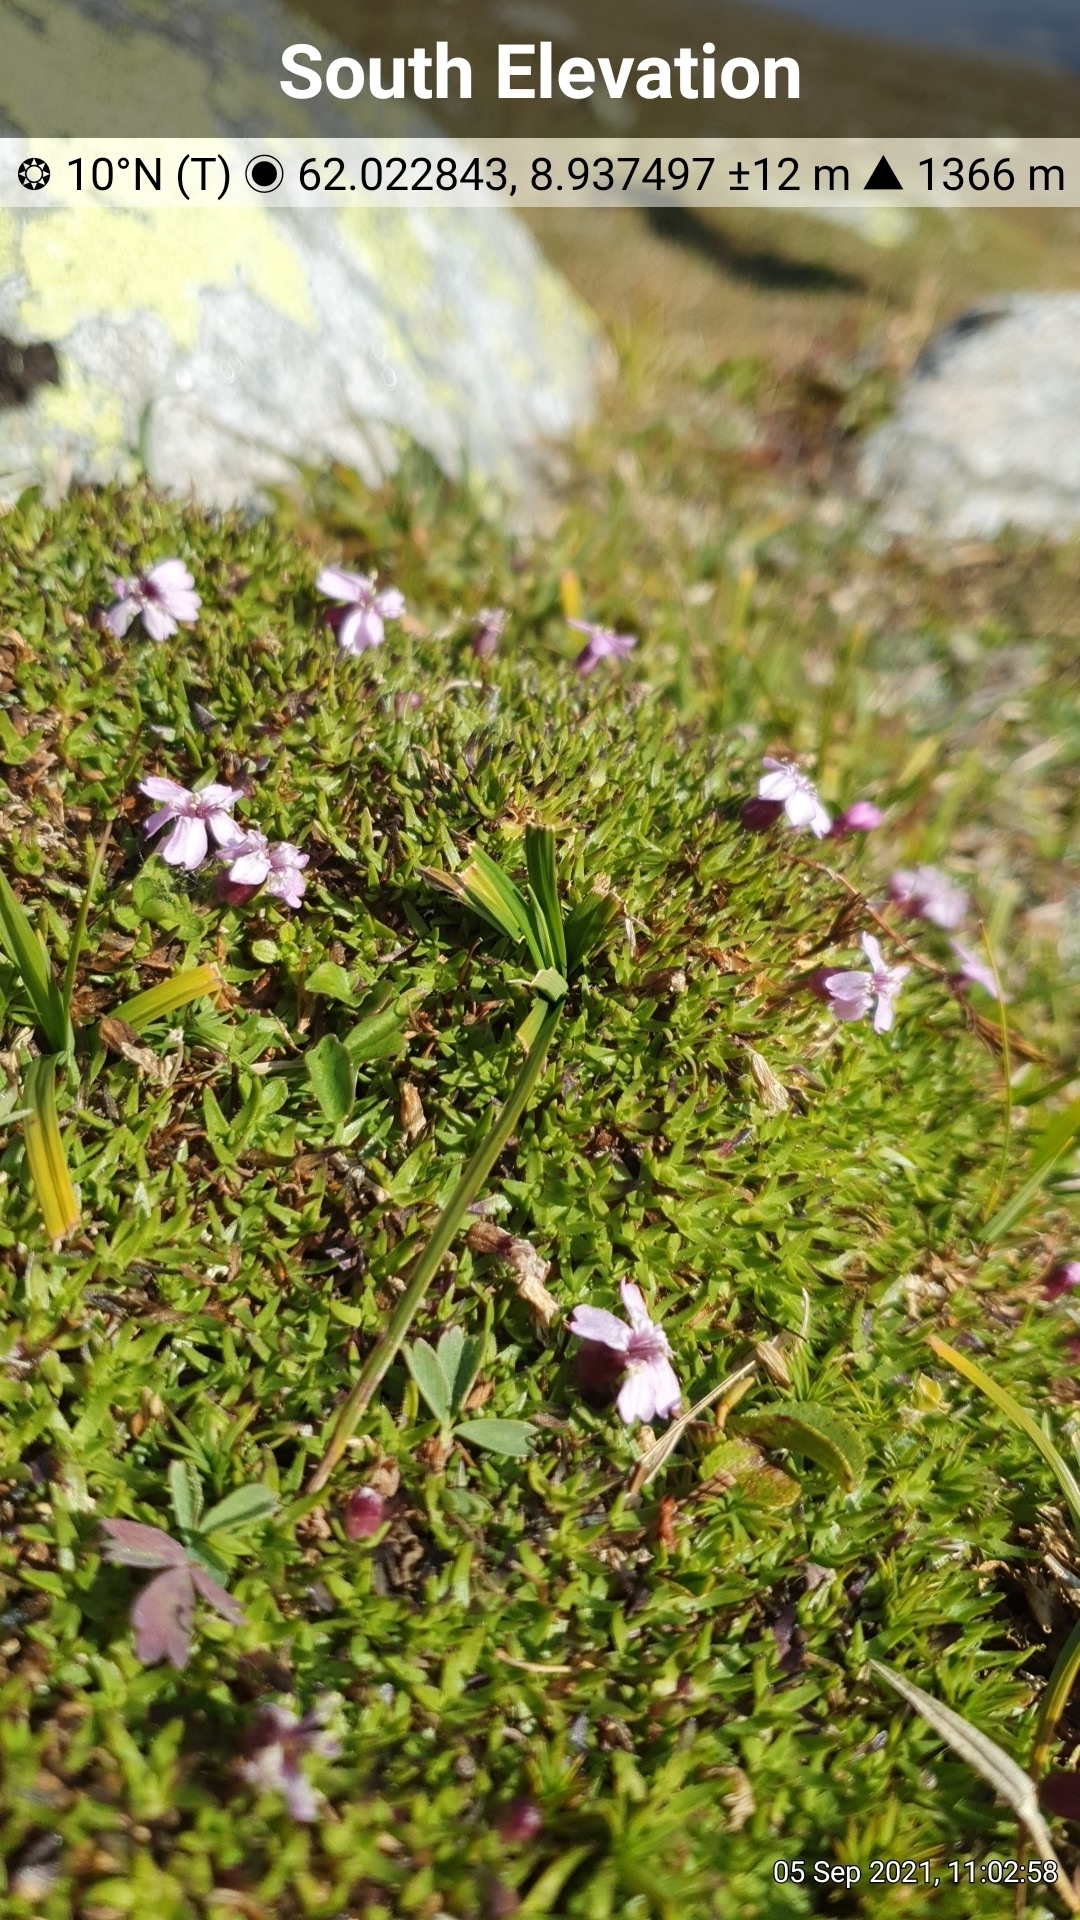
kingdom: Plantae
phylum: Tracheophyta
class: Magnoliopsida
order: Caryophyllales
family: Caryophyllaceae
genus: Silene
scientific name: Silene acaulis
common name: Moss campion
